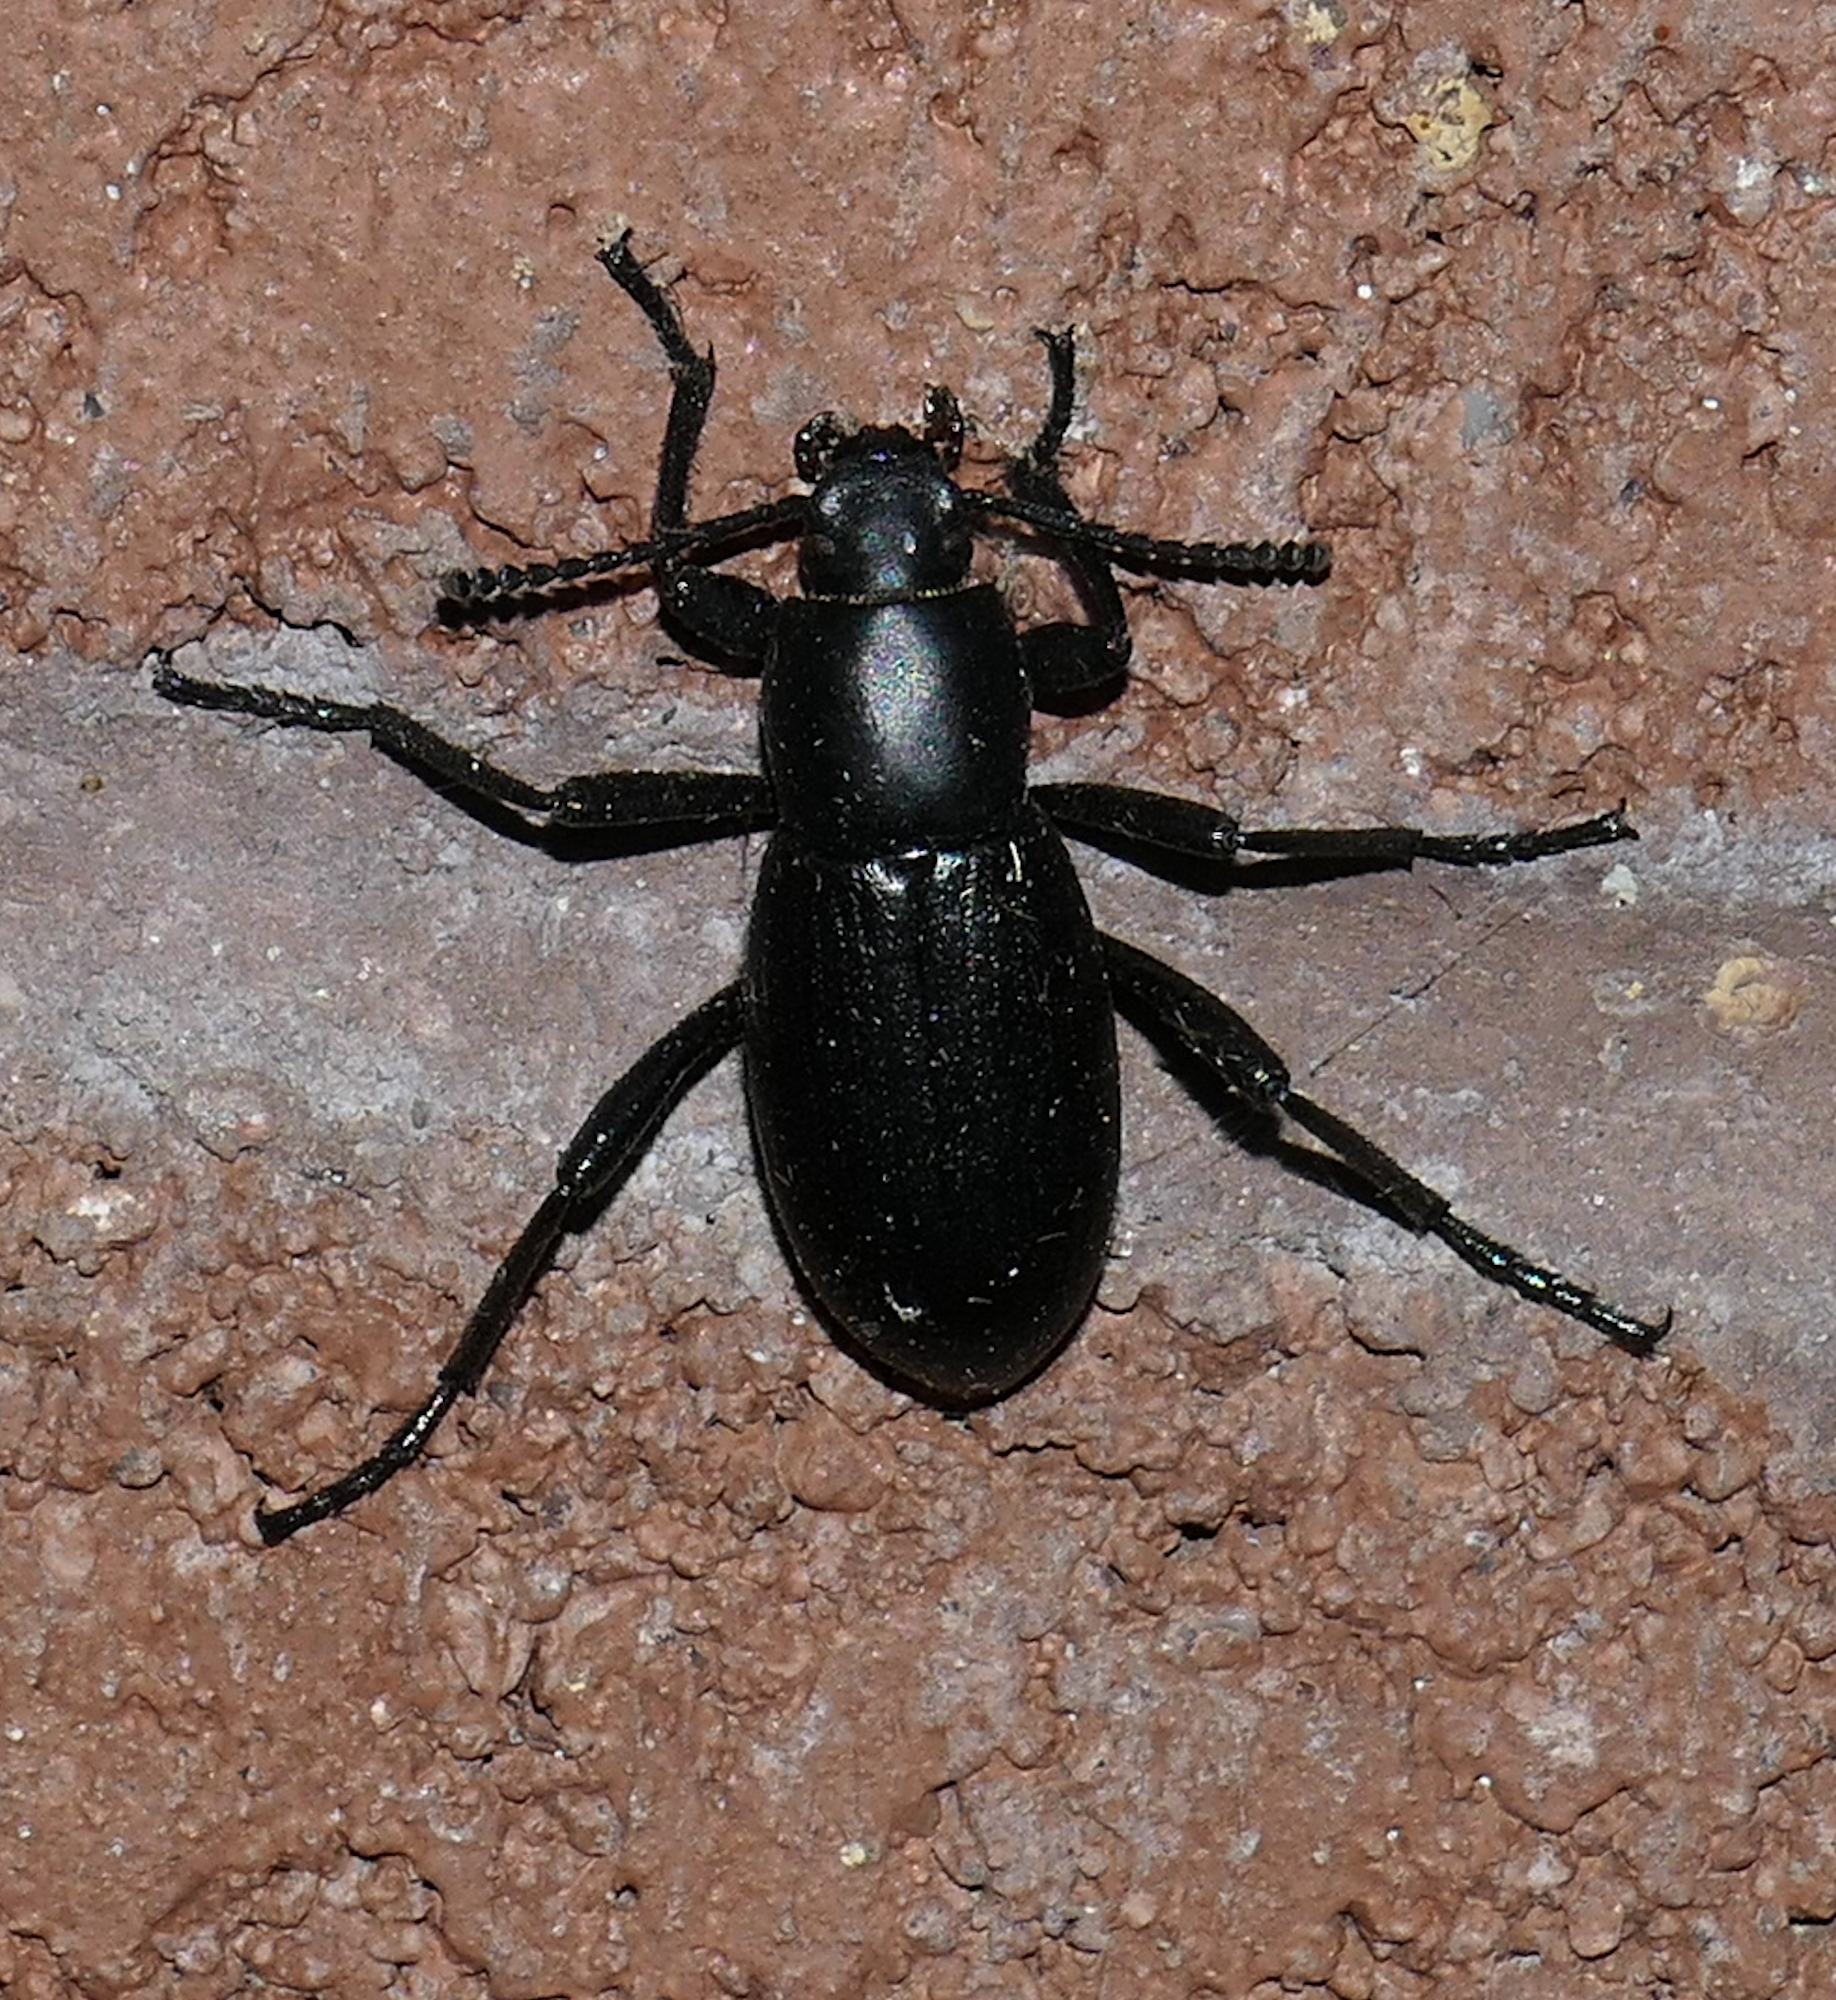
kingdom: Animalia
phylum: Arthropoda
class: Insecta
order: Coleoptera
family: Tenebrionidae
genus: Eleodes
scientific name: Eleodes anthracina
